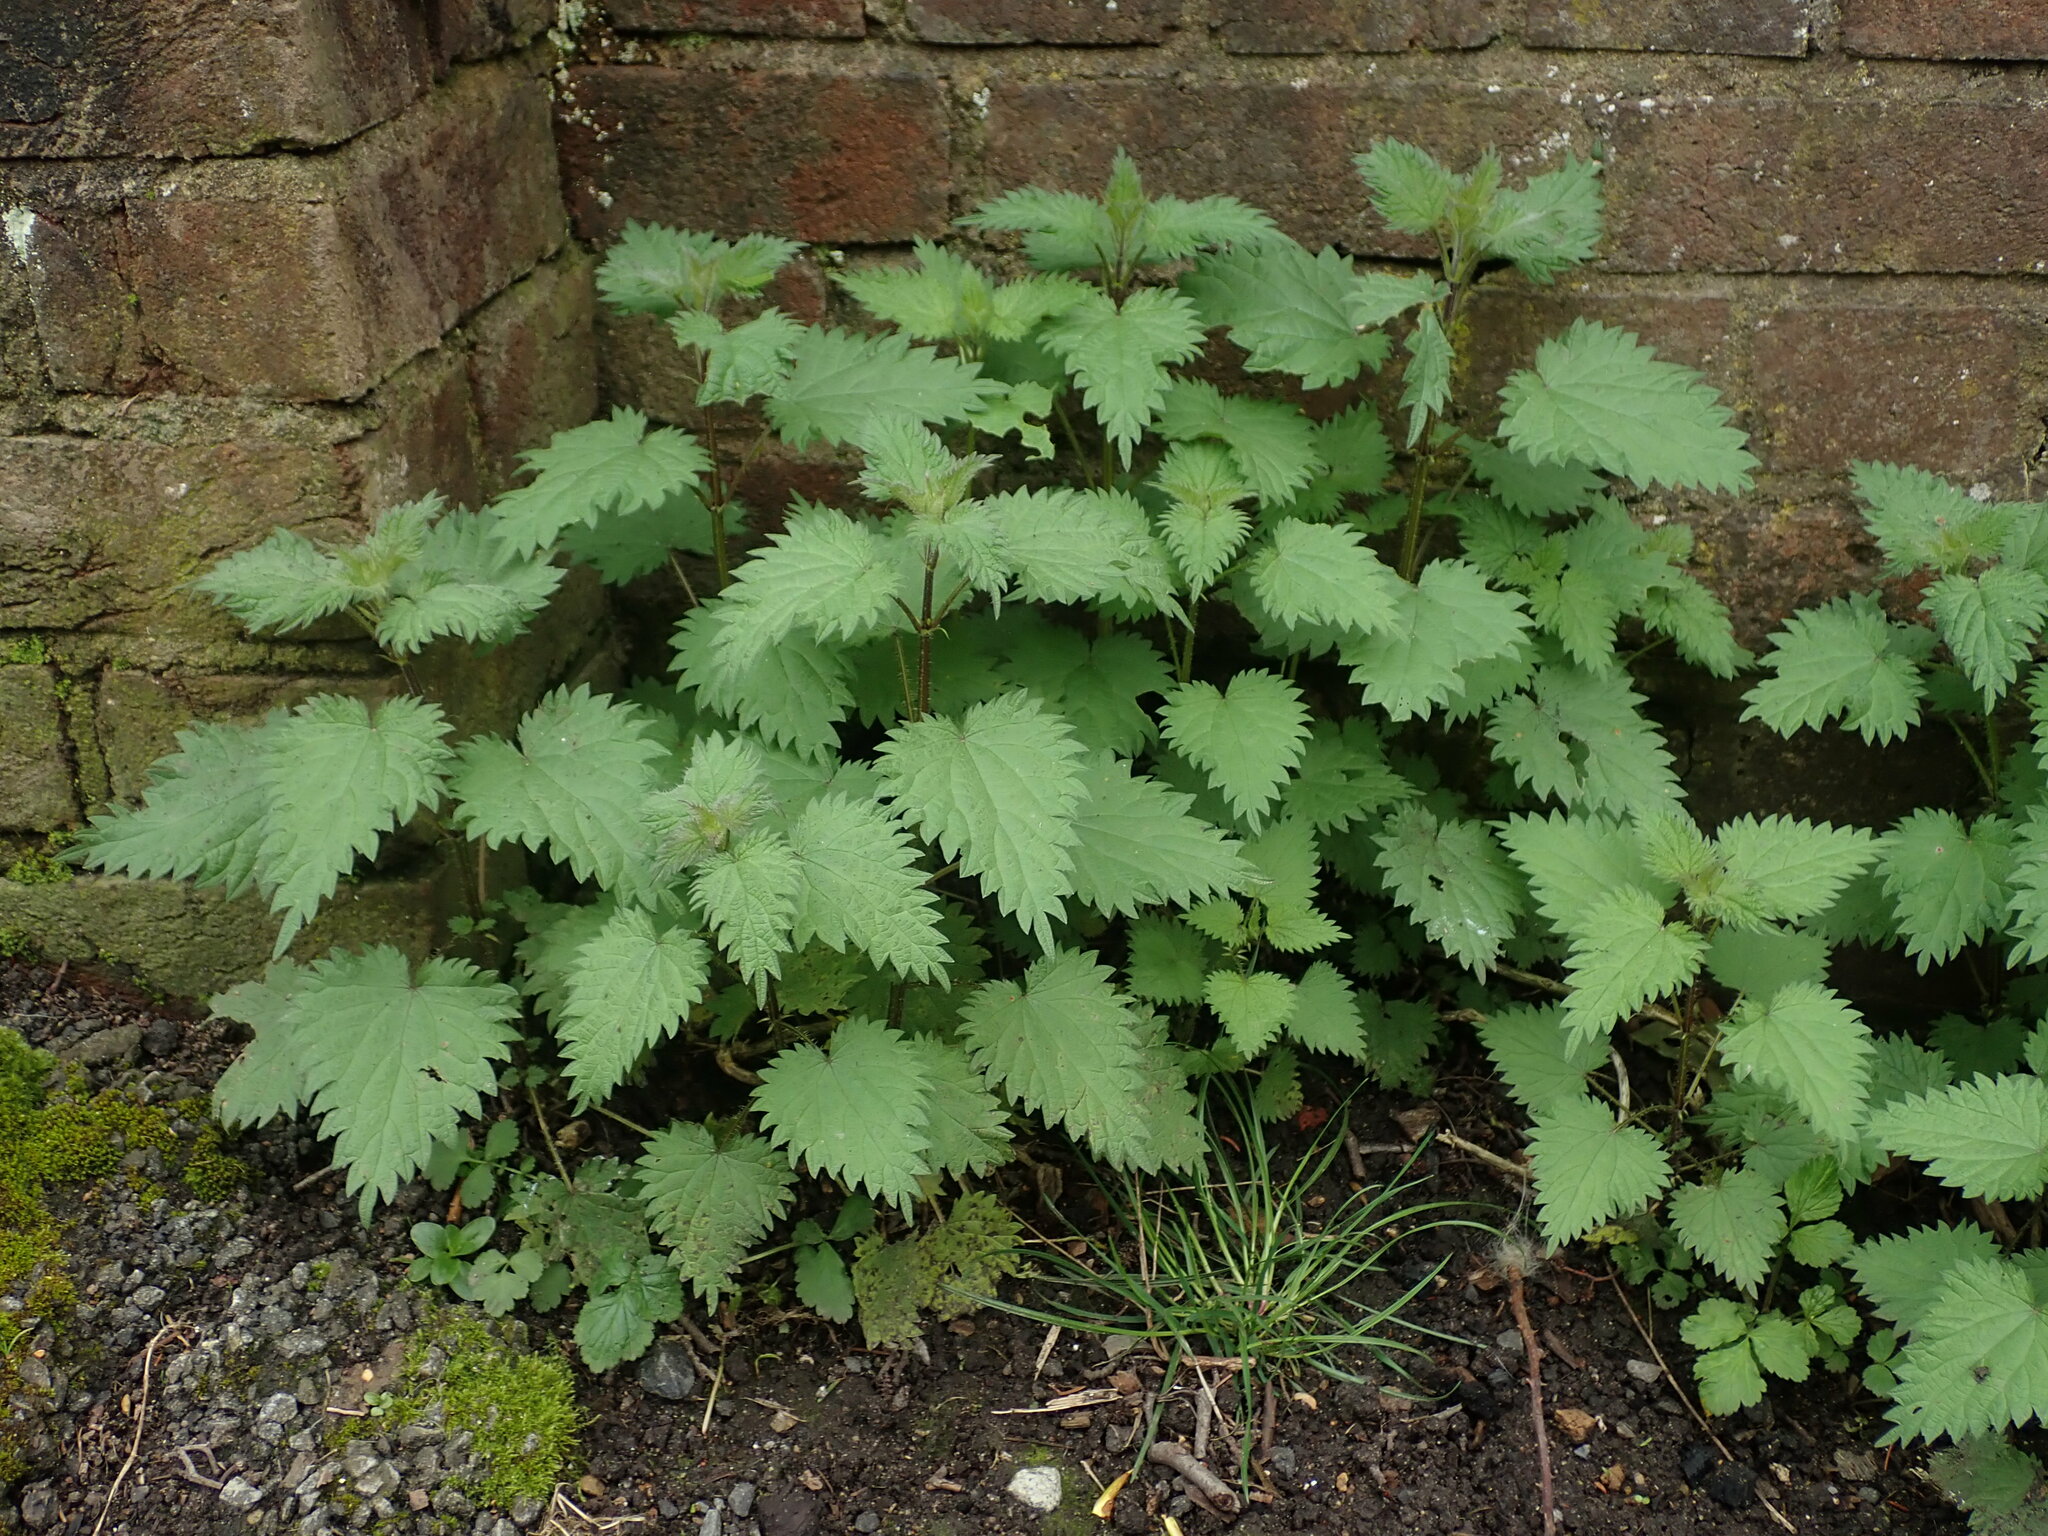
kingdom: Plantae
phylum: Tracheophyta
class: Magnoliopsida
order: Rosales
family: Urticaceae
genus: Urtica
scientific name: Urtica dioica
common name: Common nettle
